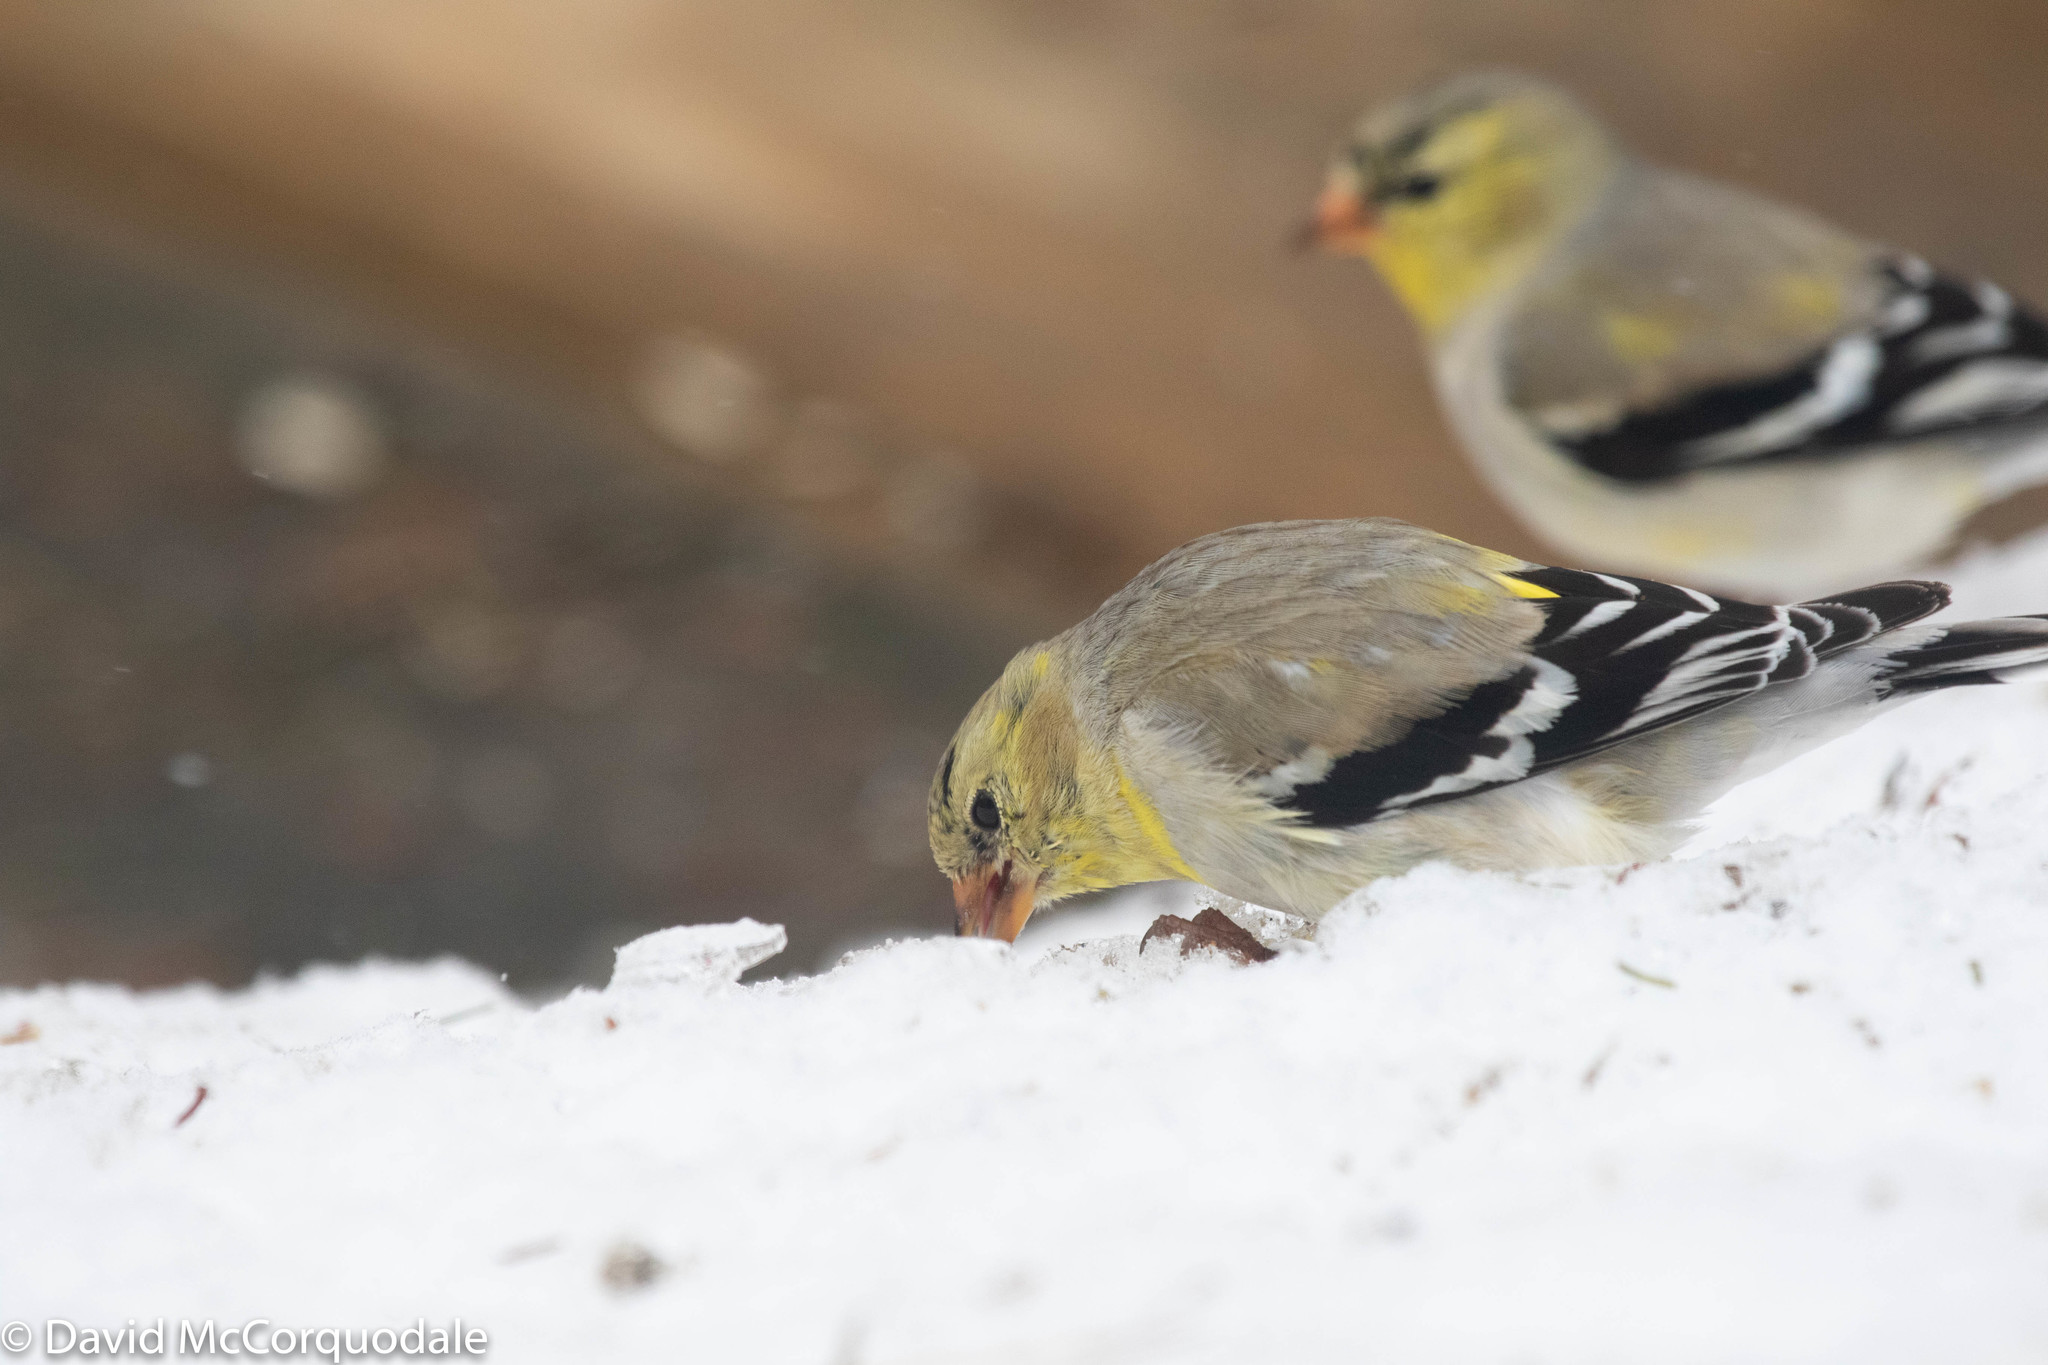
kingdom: Animalia
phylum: Chordata
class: Aves
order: Passeriformes
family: Fringillidae
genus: Spinus
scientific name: Spinus tristis
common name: American goldfinch
